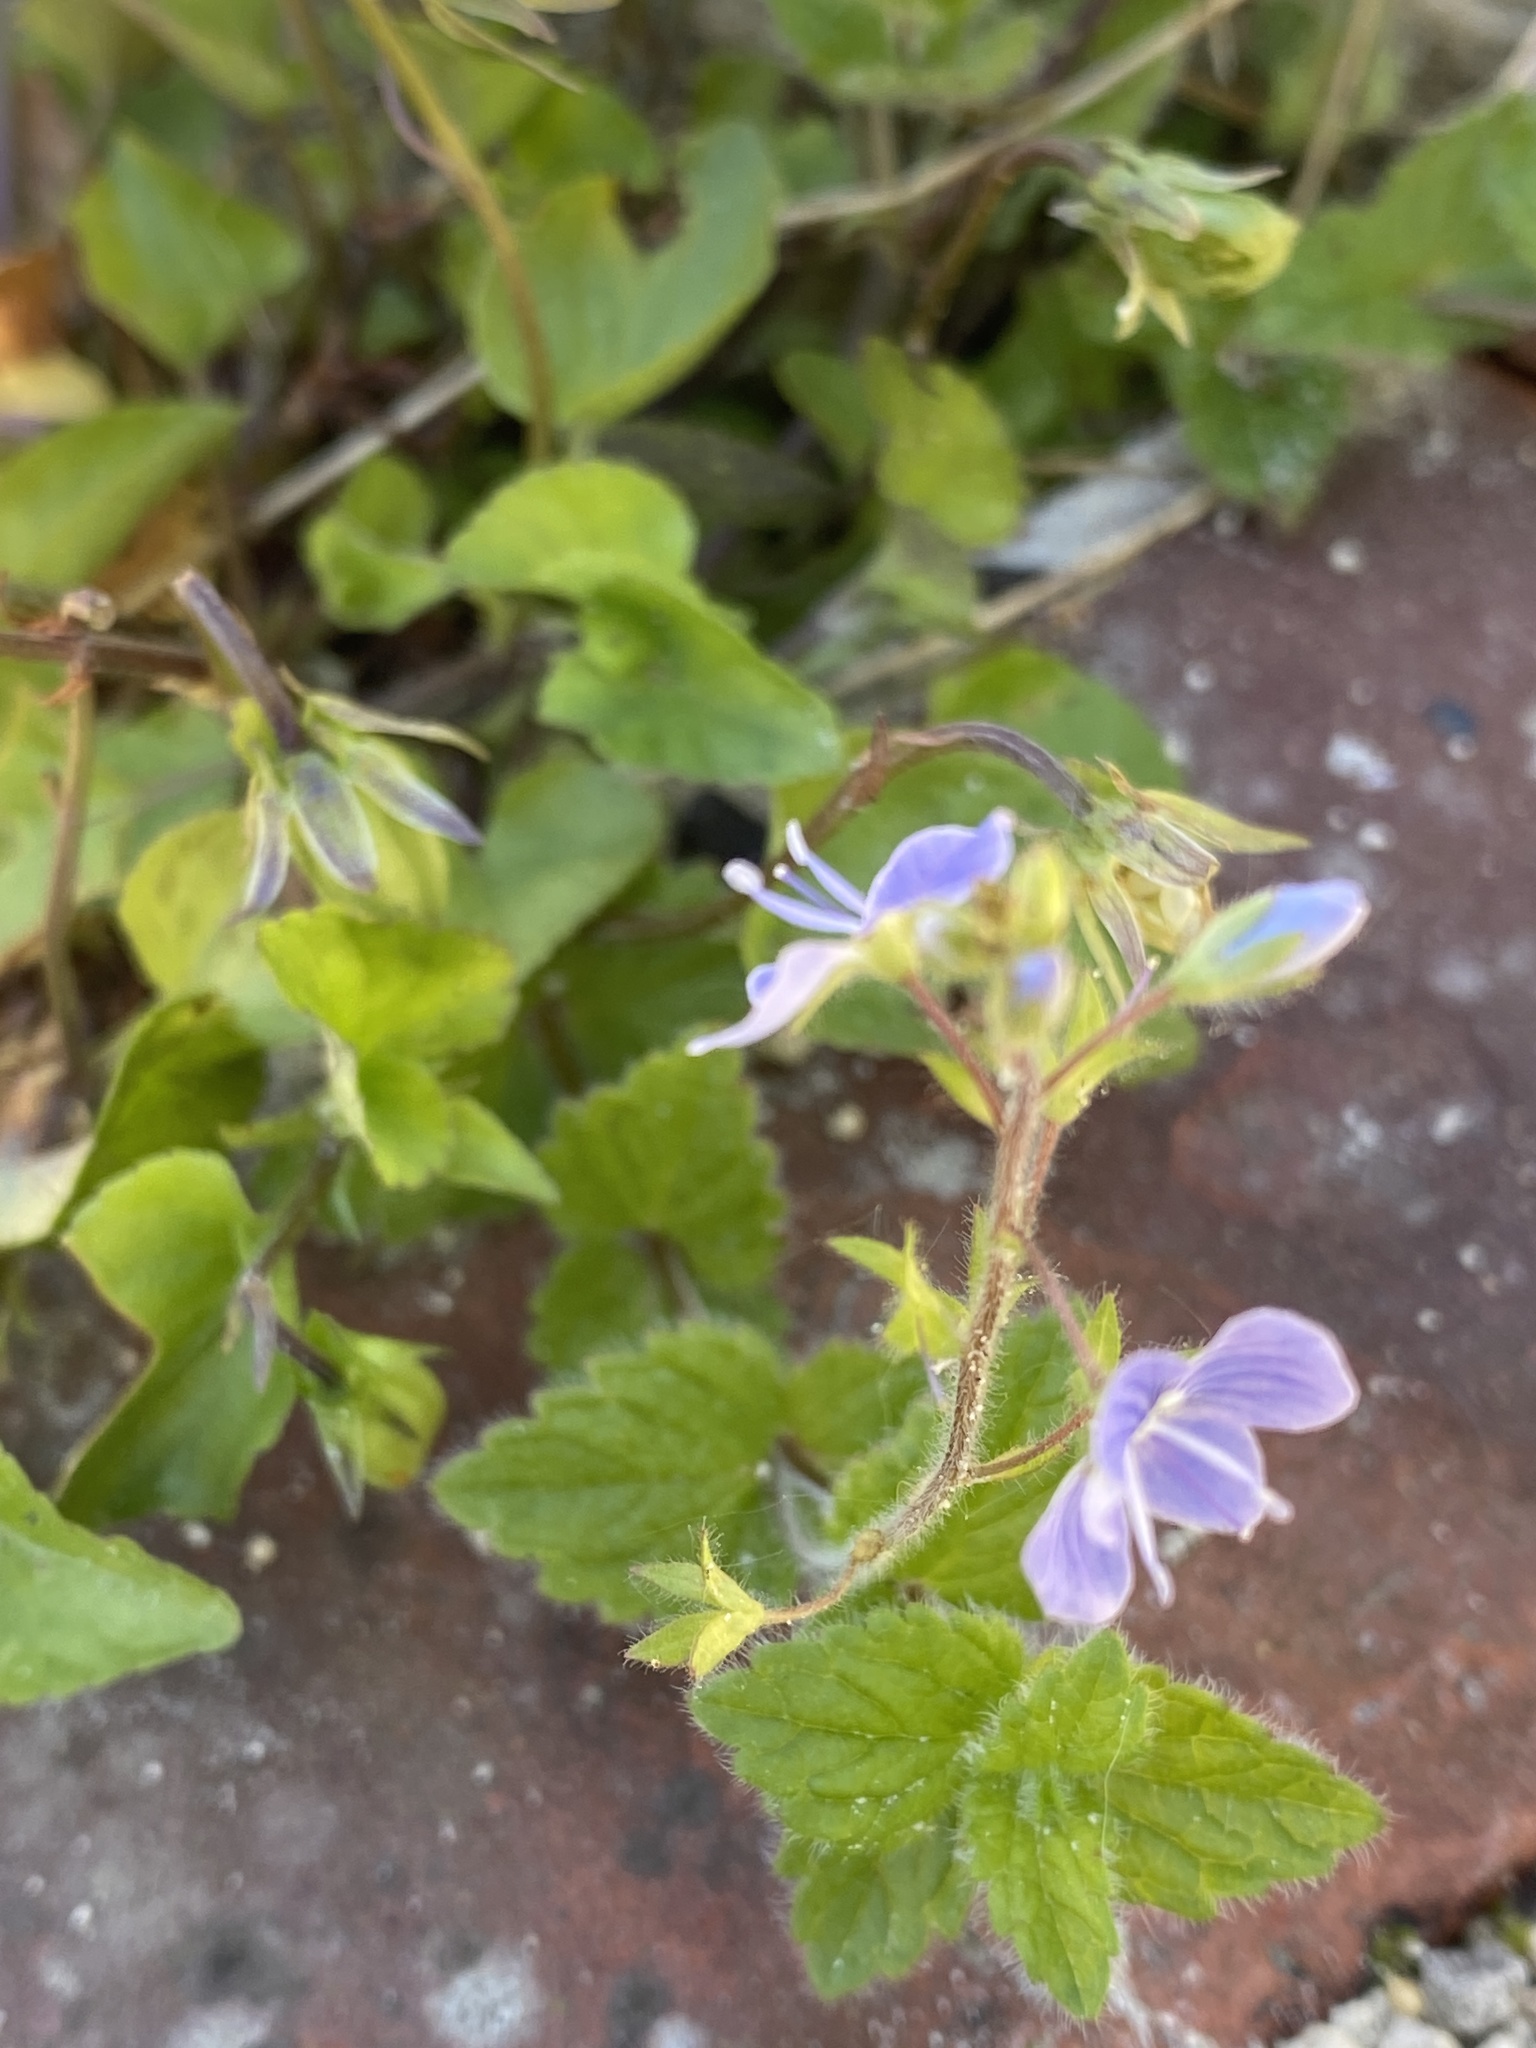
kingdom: Plantae
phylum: Tracheophyta
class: Magnoliopsida
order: Lamiales
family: Plantaginaceae
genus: Veronica
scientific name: Veronica chamaedrys
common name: Germander speedwell
